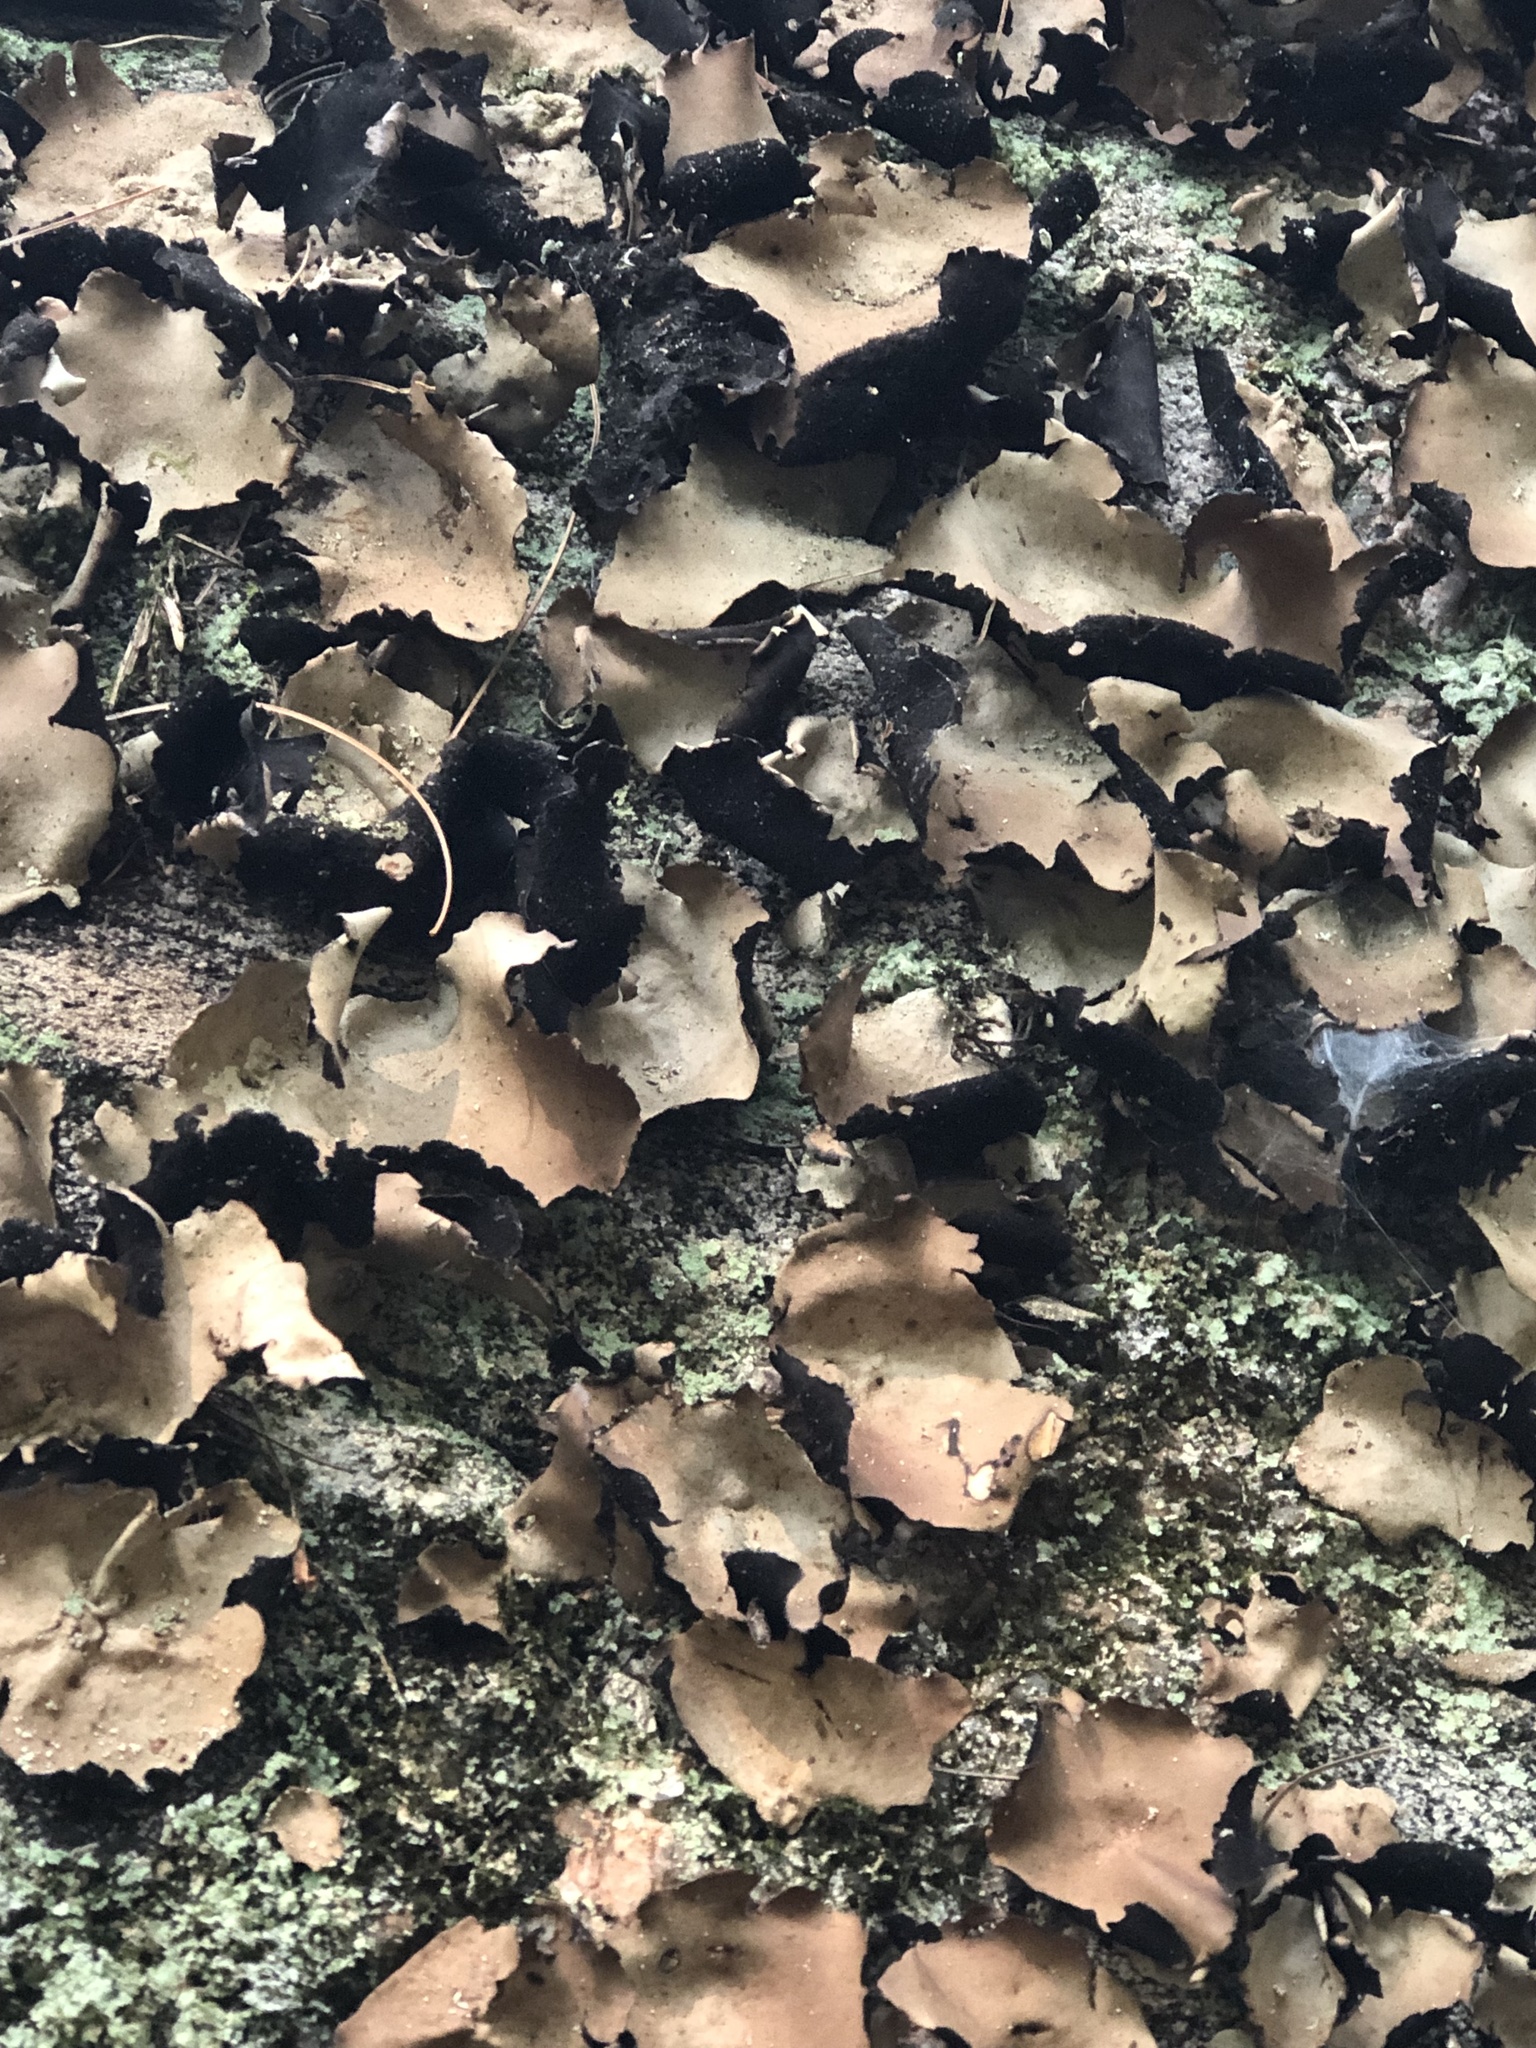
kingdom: Fungi
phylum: Ascomycota
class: Lecanoromycetes
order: Umbilicariales
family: Umbilicariaceae
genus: Umbilicaria
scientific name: Umbilicaria mammulata
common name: Smooth rock tripe
